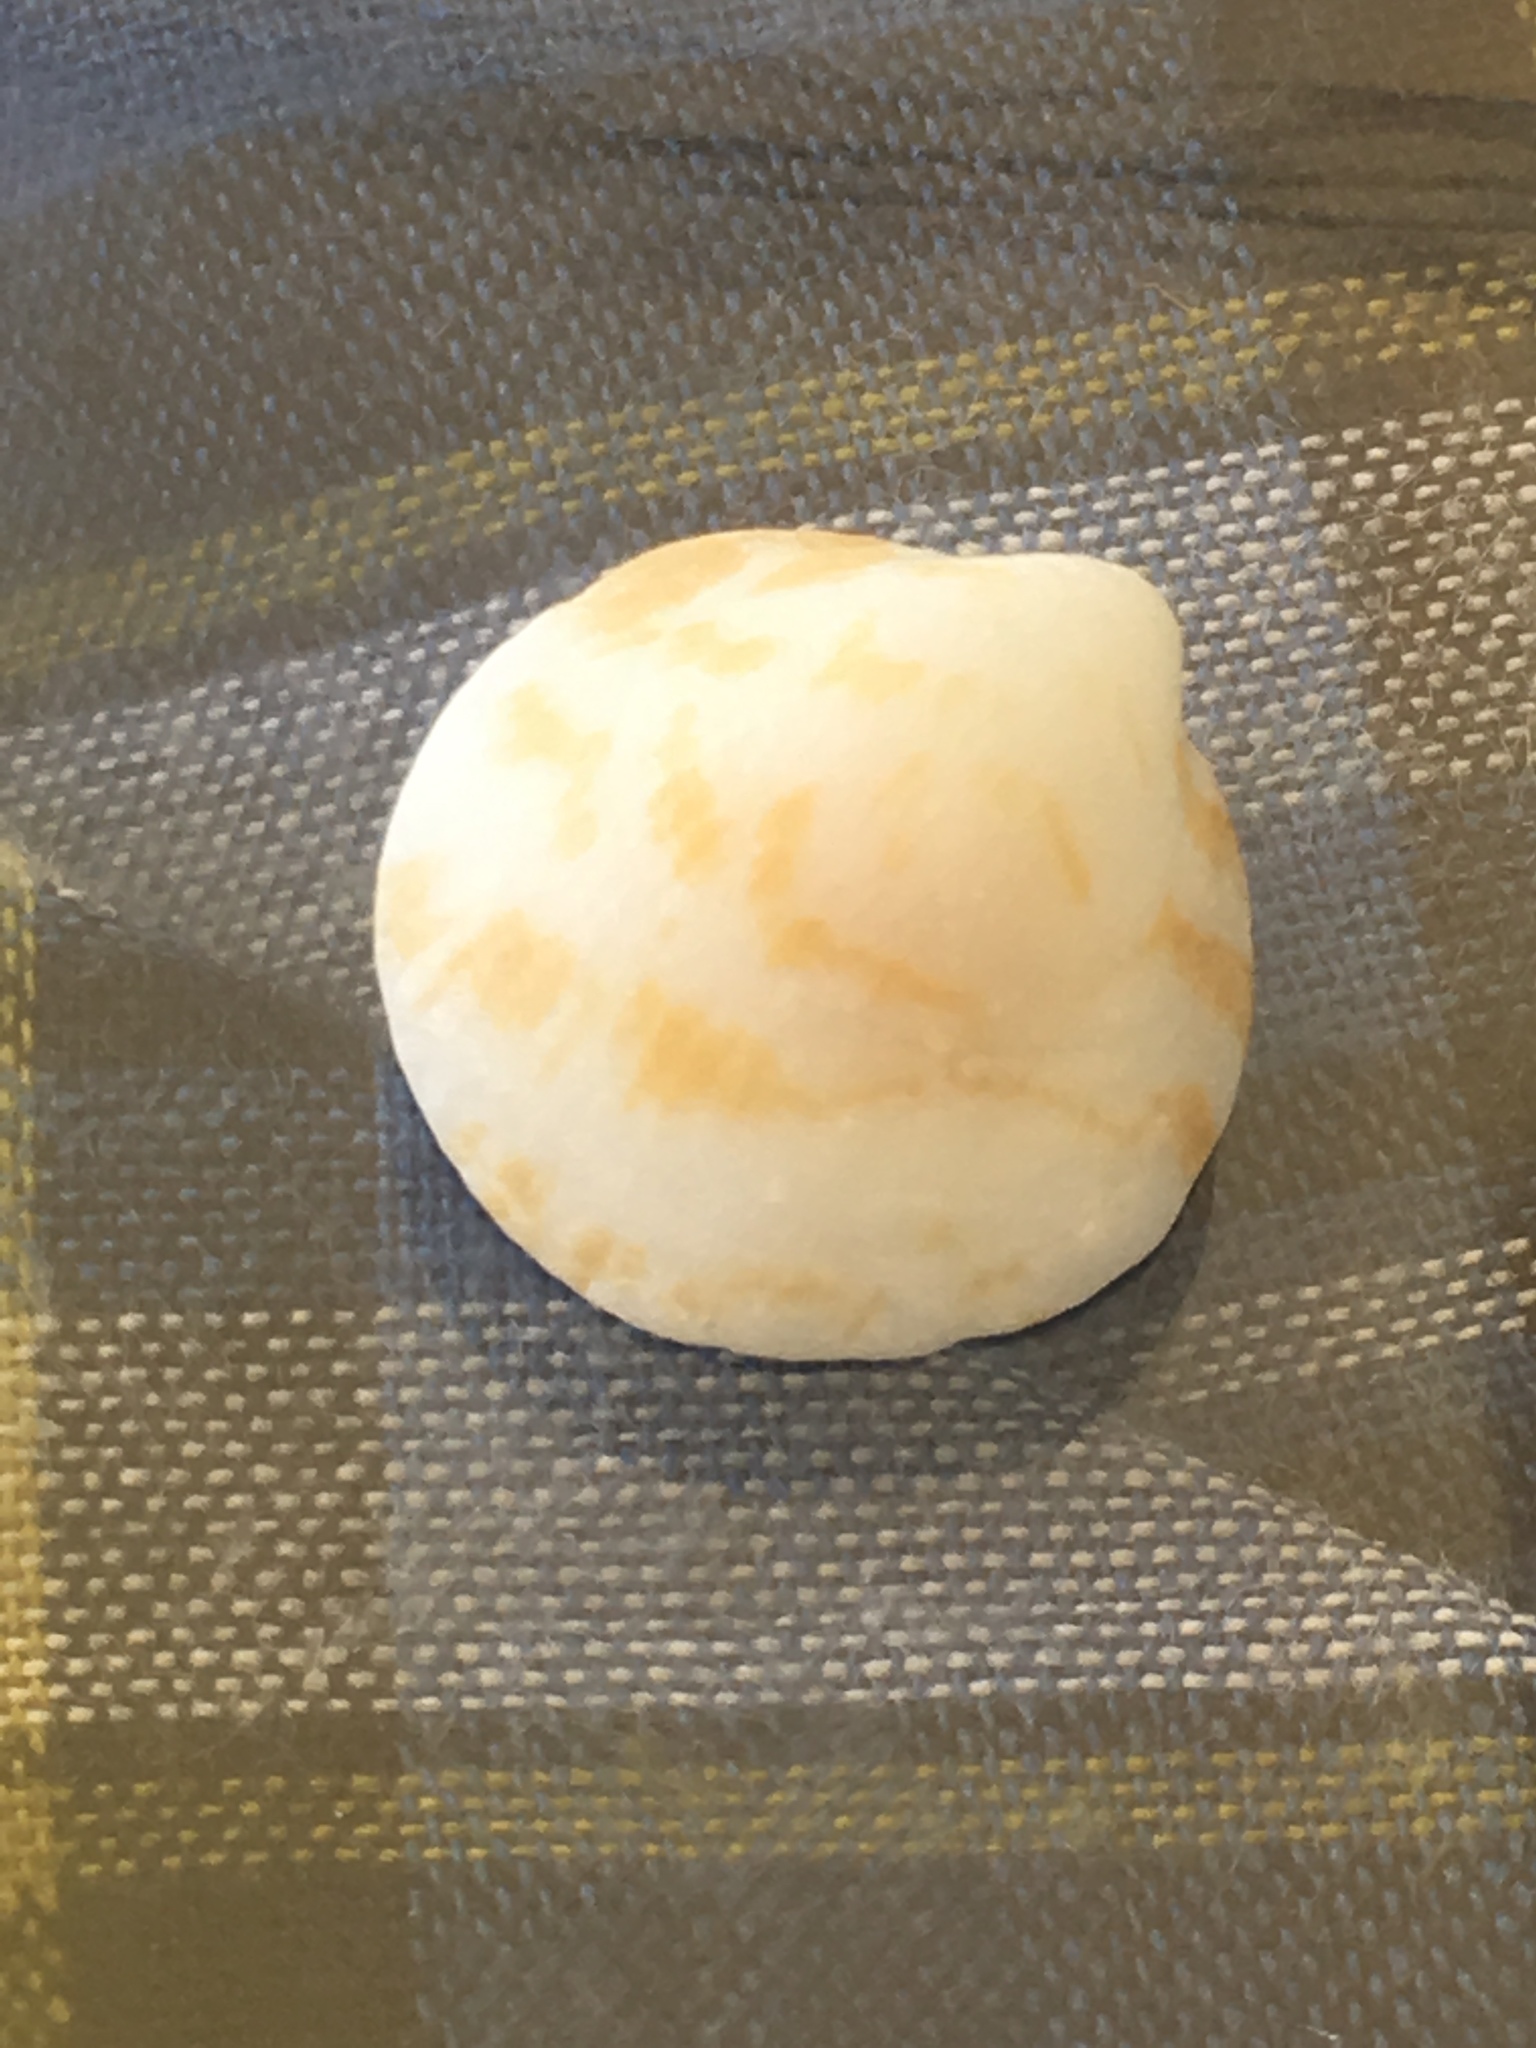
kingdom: Animalia
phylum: Mollusca
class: Bivalvia
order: Arcida
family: Glycymerididae
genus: Glycymeris
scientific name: Glycymeris undata
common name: Atlantic bittersweet
